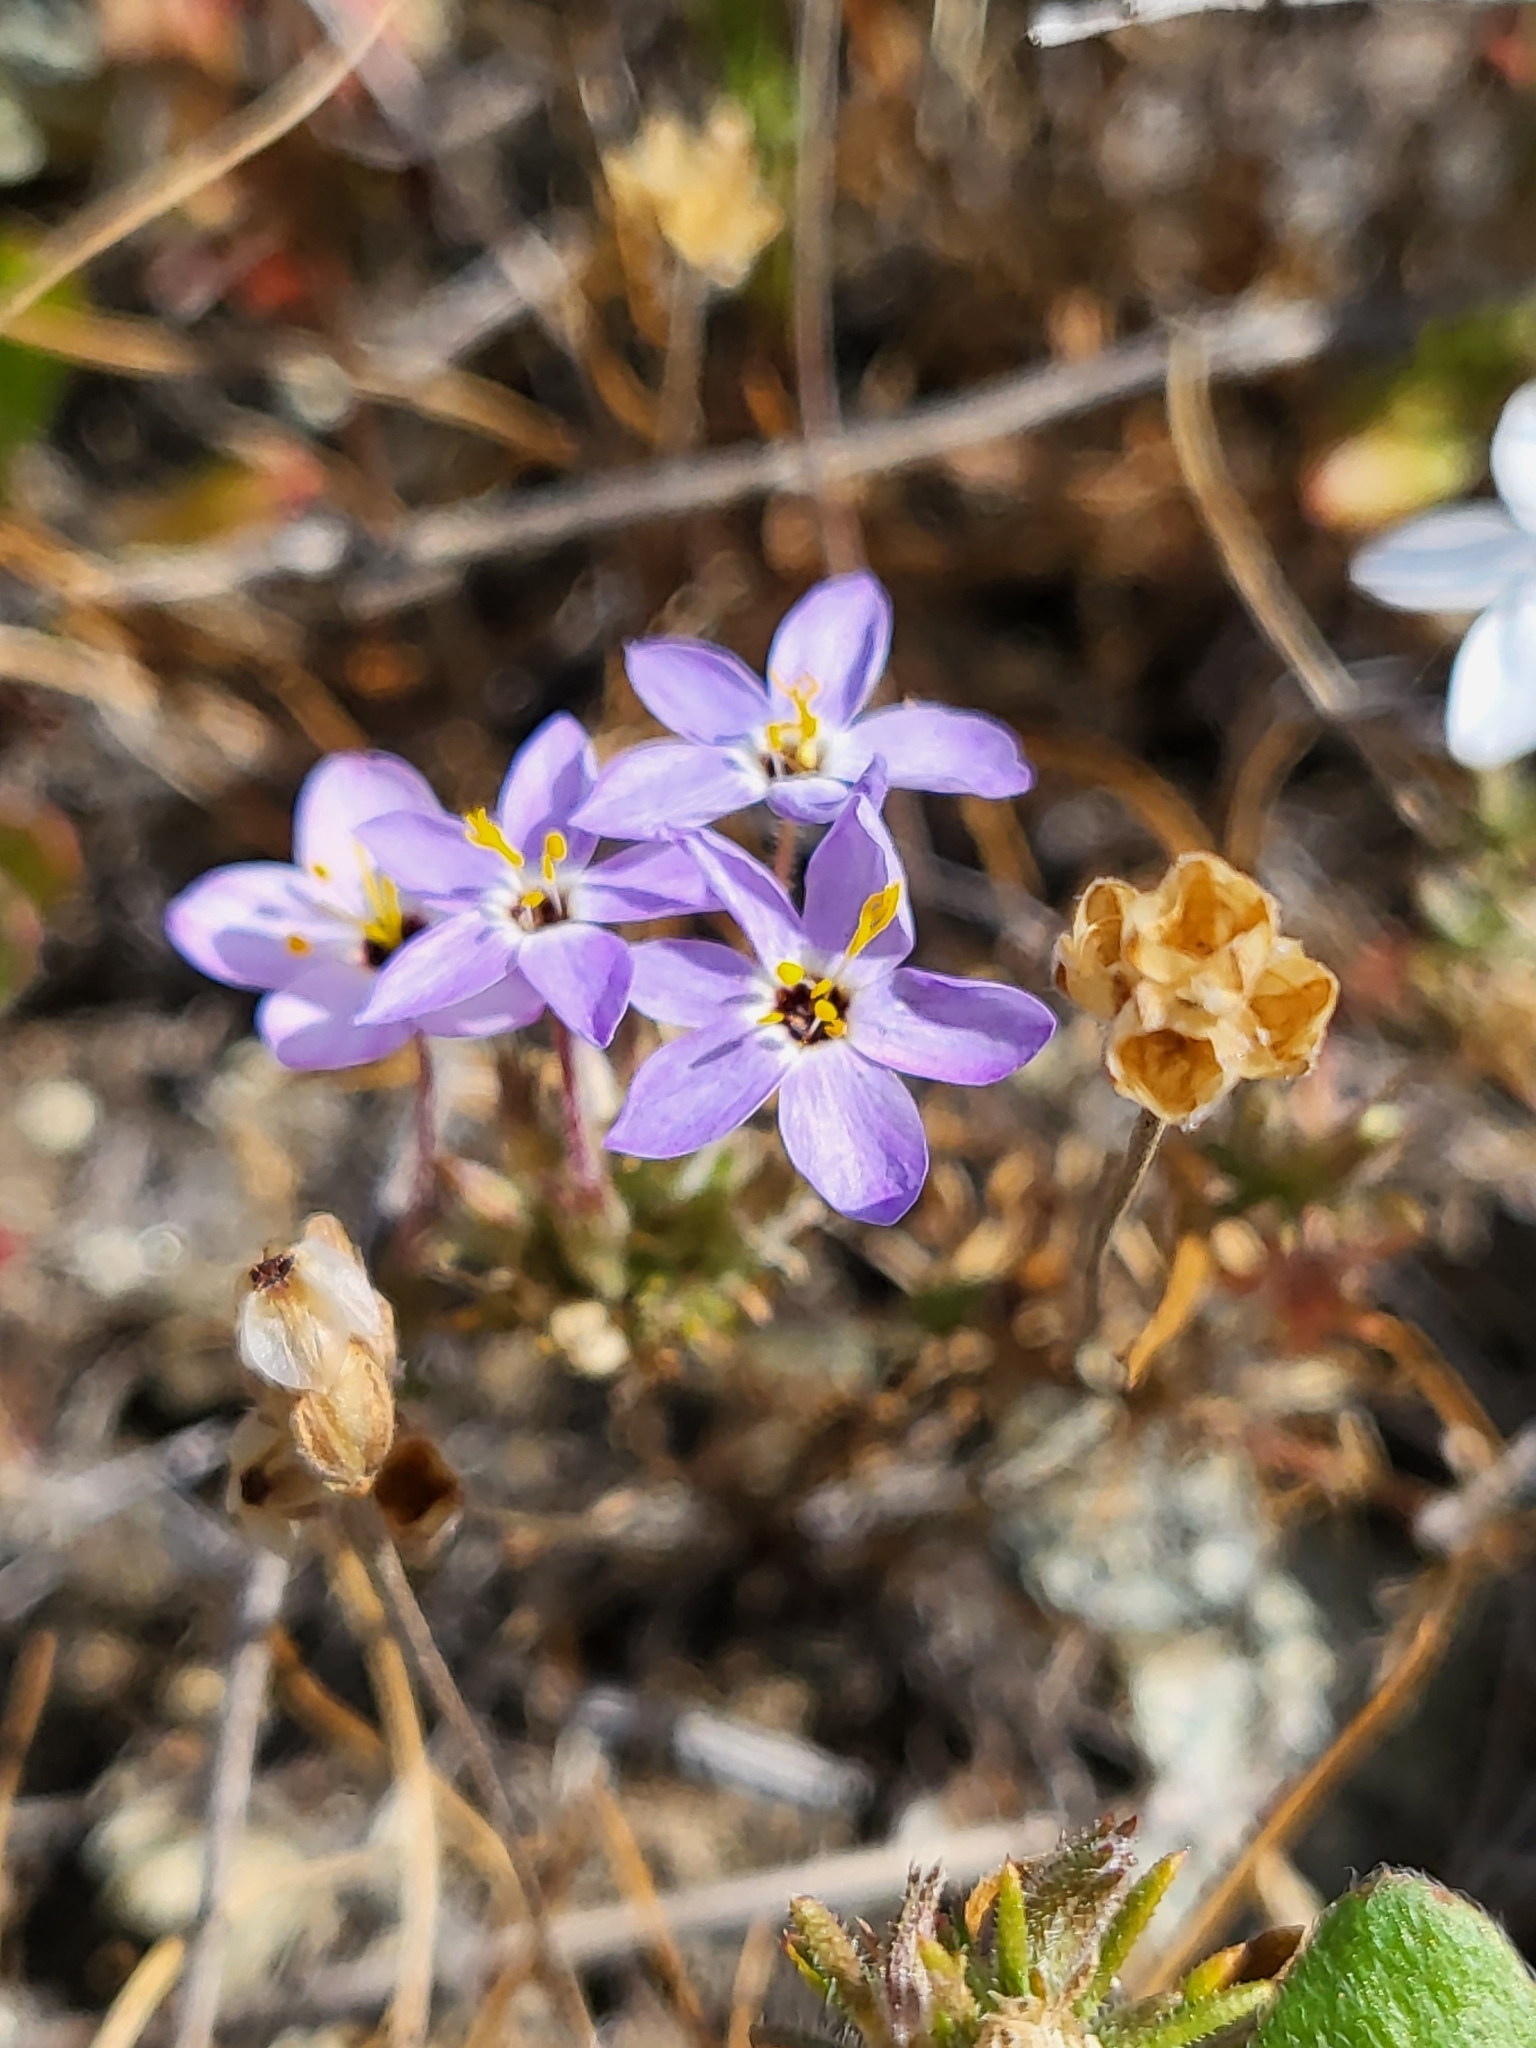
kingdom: Plantae
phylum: Tracheophyta
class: Magnoliopsida
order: Ericales
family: Polemoniaceae
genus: Leptosiphon
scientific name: Leptosiphon parviflorus
